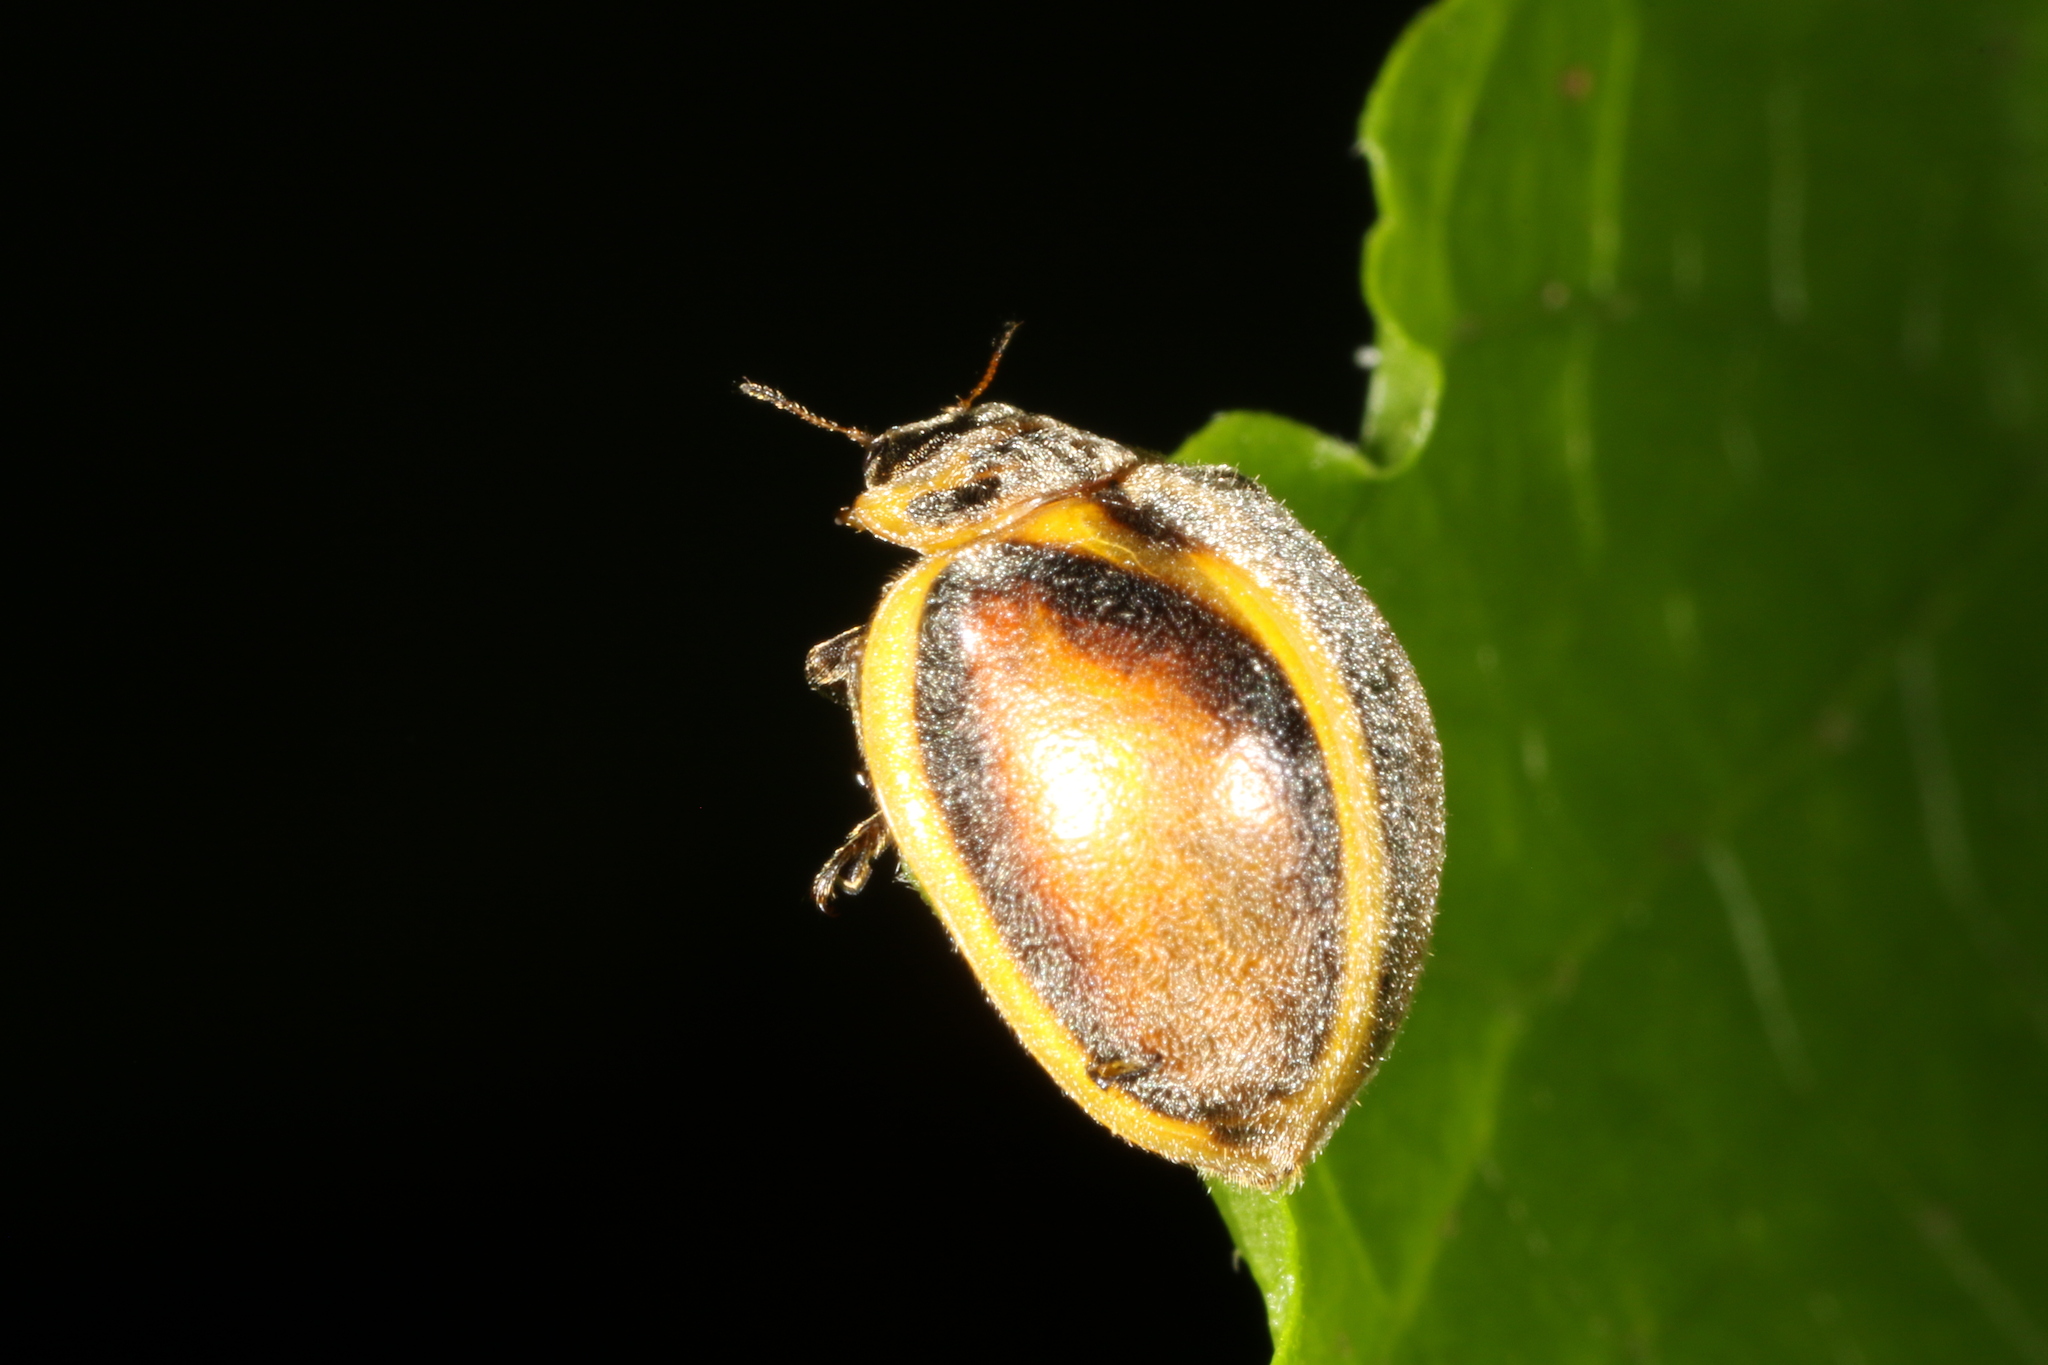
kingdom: Animalia
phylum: Arthropoda
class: Insecta
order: Coleoptera
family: Coccinellidae
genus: Epilachna
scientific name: Epilachna
